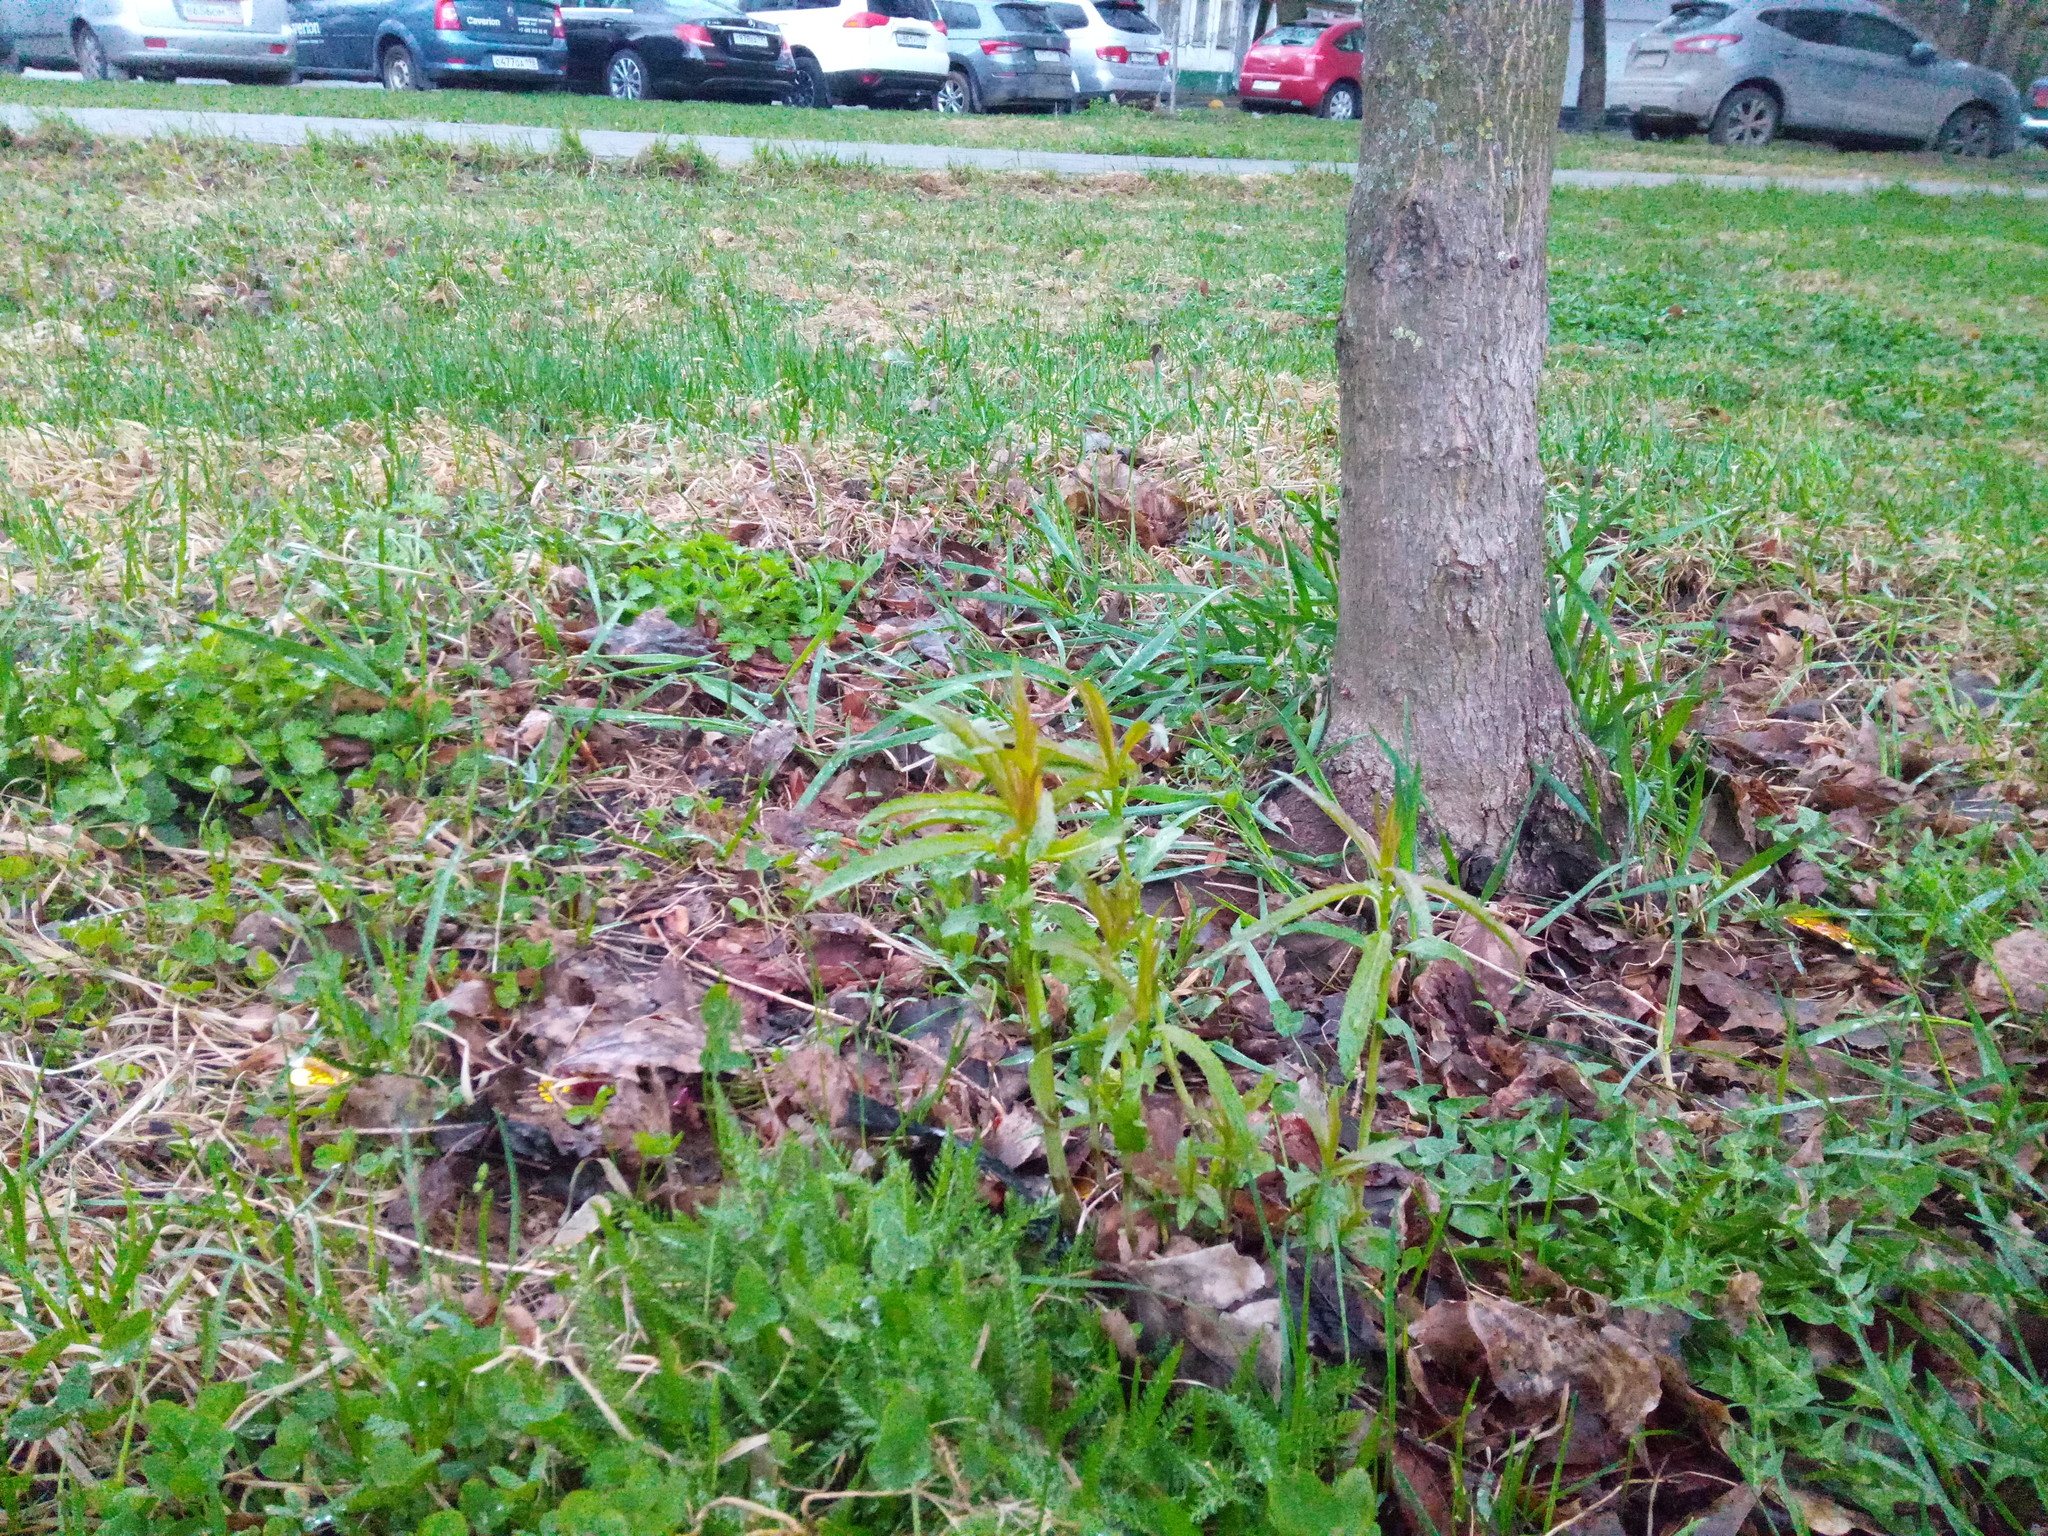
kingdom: Plantae
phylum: Tracheophyta
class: Magnoliopsida
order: Lamiales
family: Plantaginaceae
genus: Veronica
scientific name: Veronica longifolia
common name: Garden speedwell
